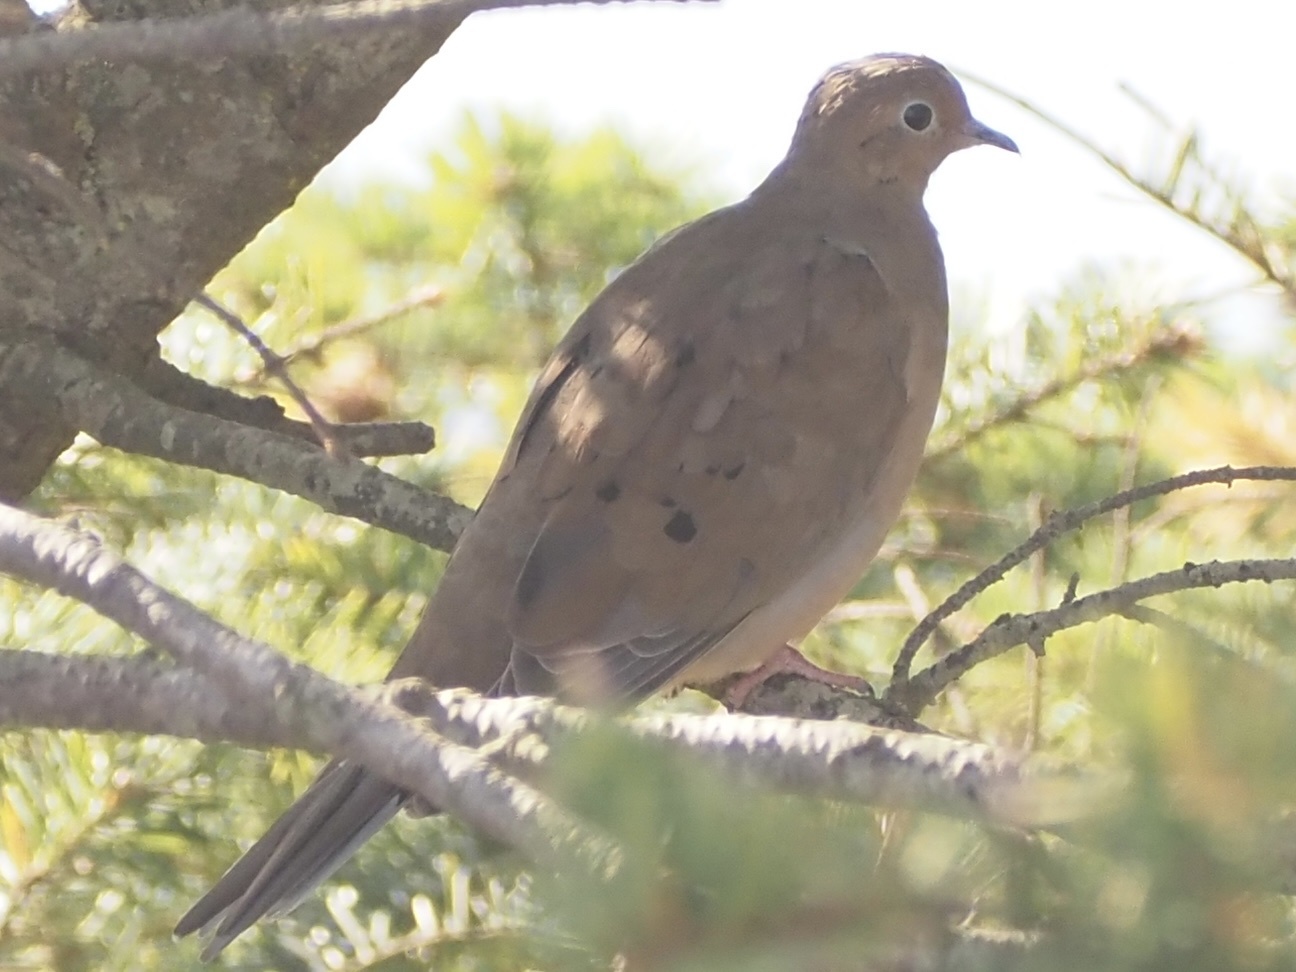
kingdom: Animalia
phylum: Chordata
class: Aves
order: Columbiformes
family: Columbidae
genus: Zenaida
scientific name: Zenaida macroura
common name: Mourning dove
